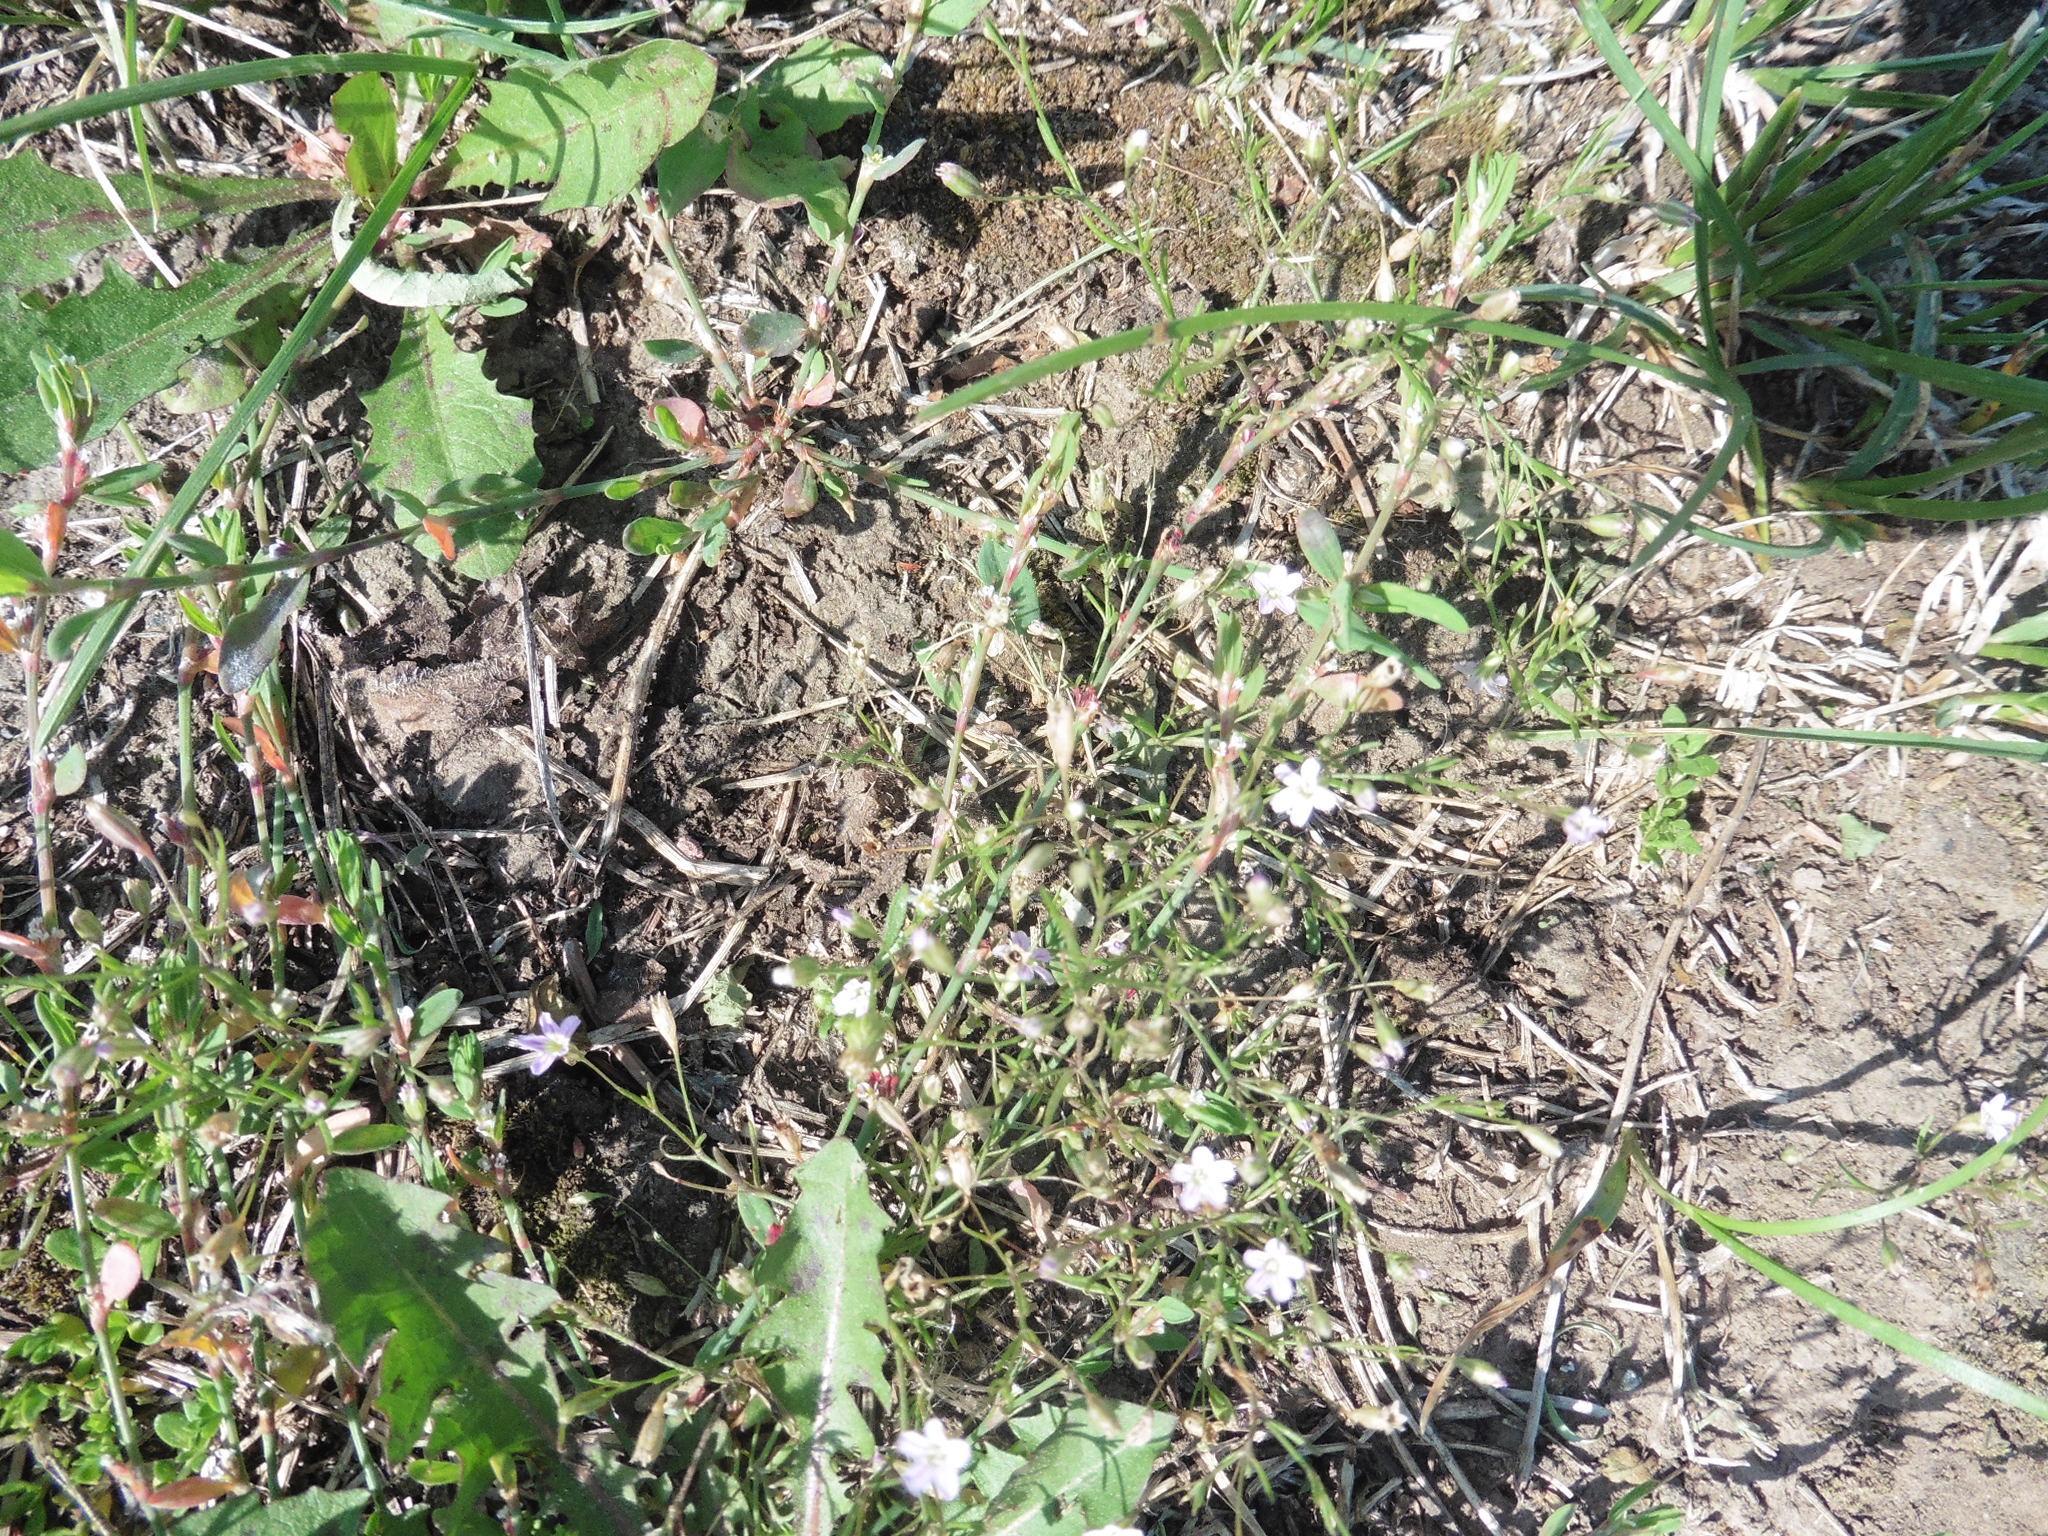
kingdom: Plantae
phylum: Tracheophyta
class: Magnoliopsida
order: Caryophyllales
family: Caryophyllaceae
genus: Psammophiliella
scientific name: Psammophiliella muralis
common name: Cushion baby's-breath
